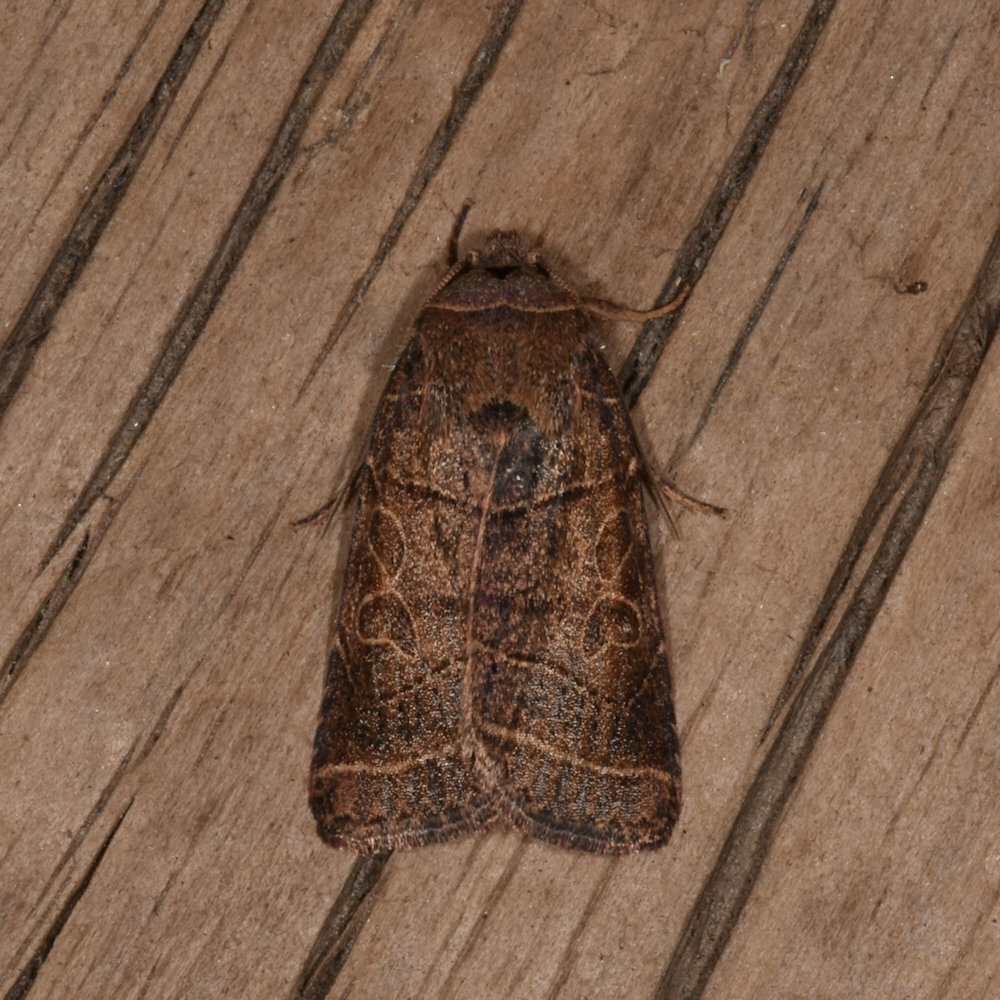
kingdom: Animalia
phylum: Arthropoda
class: Insecta
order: Lepidoptera
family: Noctuidae
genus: Orthodes
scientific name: Orthodes majuscula
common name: Rustic quaker
